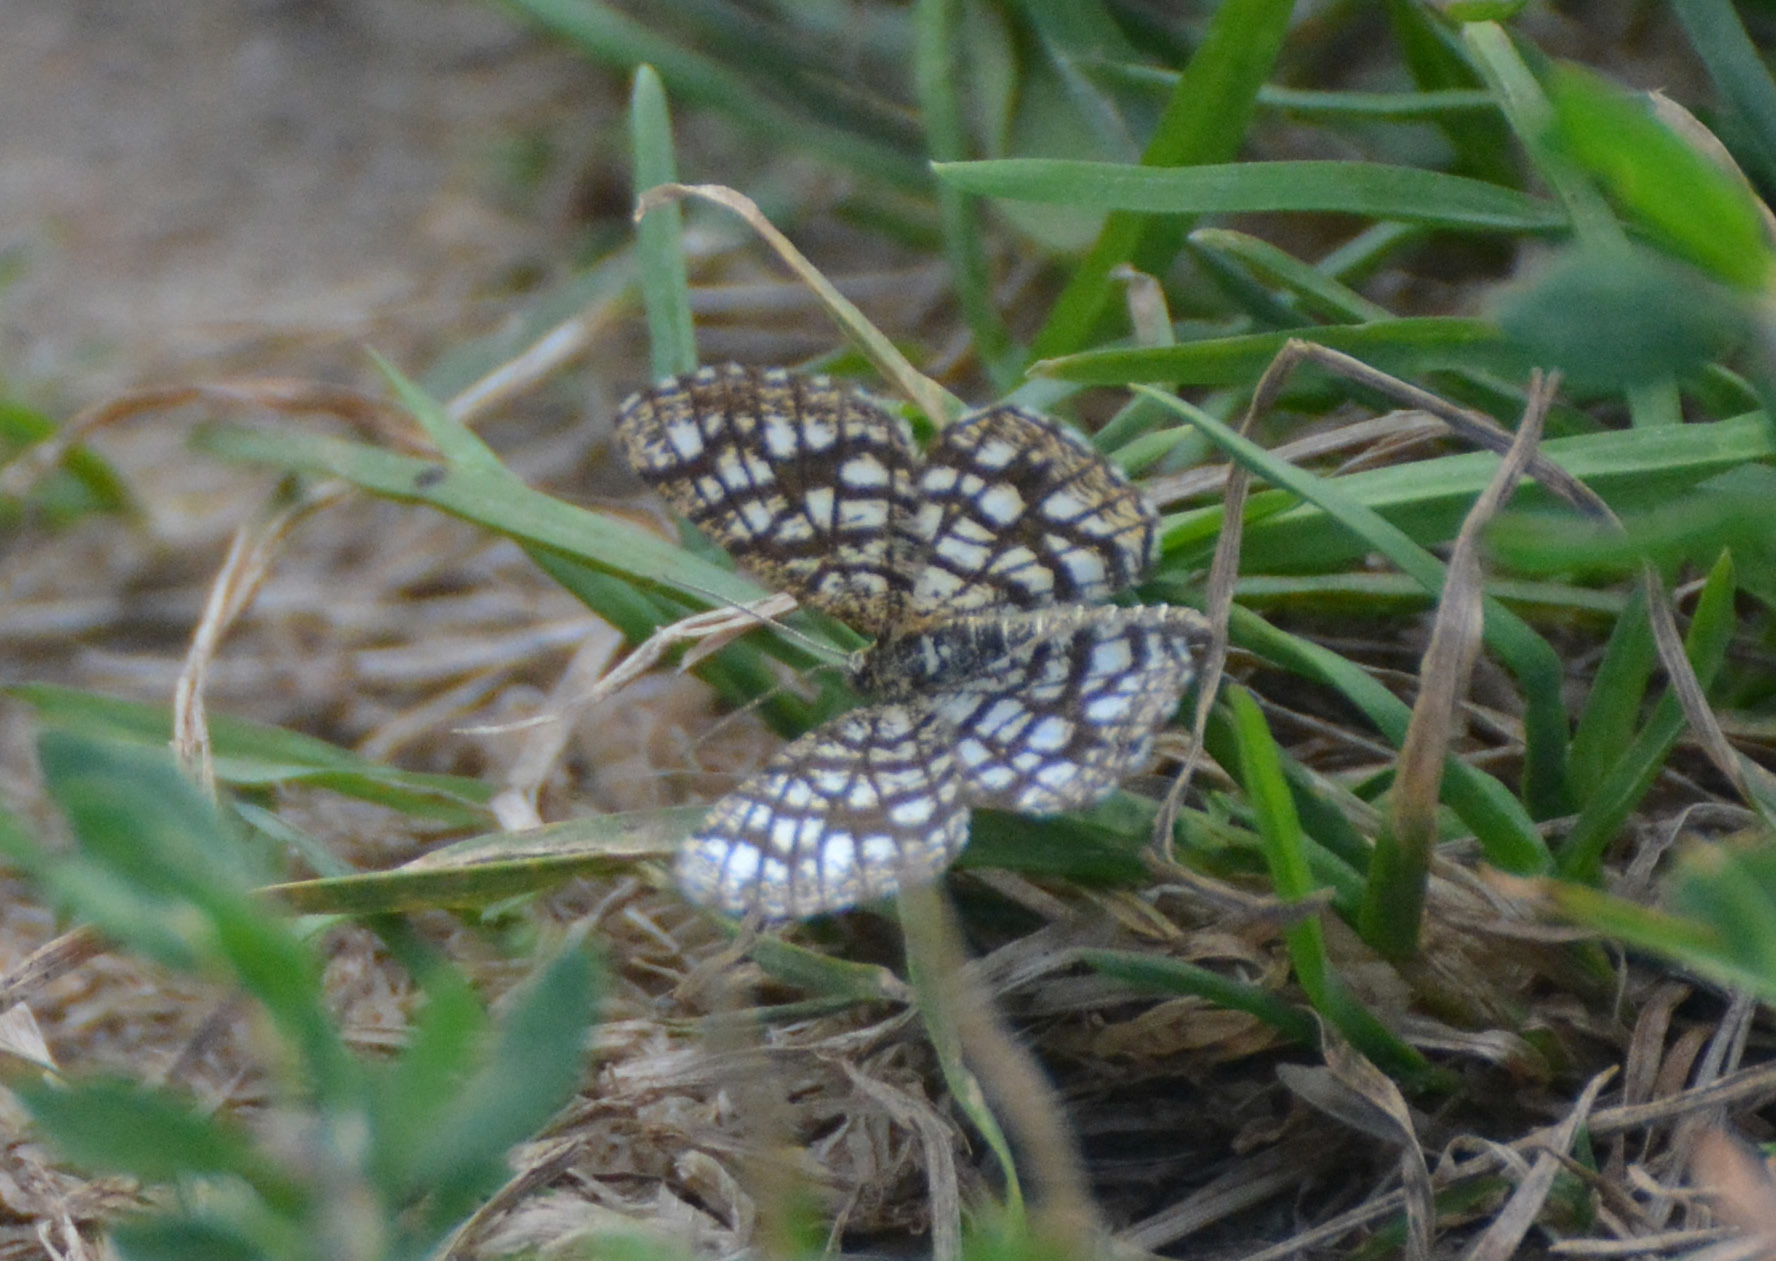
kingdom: Animalia
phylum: Arthropoda
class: Insecta
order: Lepidoptera
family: Geometridae
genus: Chiasmia
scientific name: Chiasmia clathrata
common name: Latticed heath
